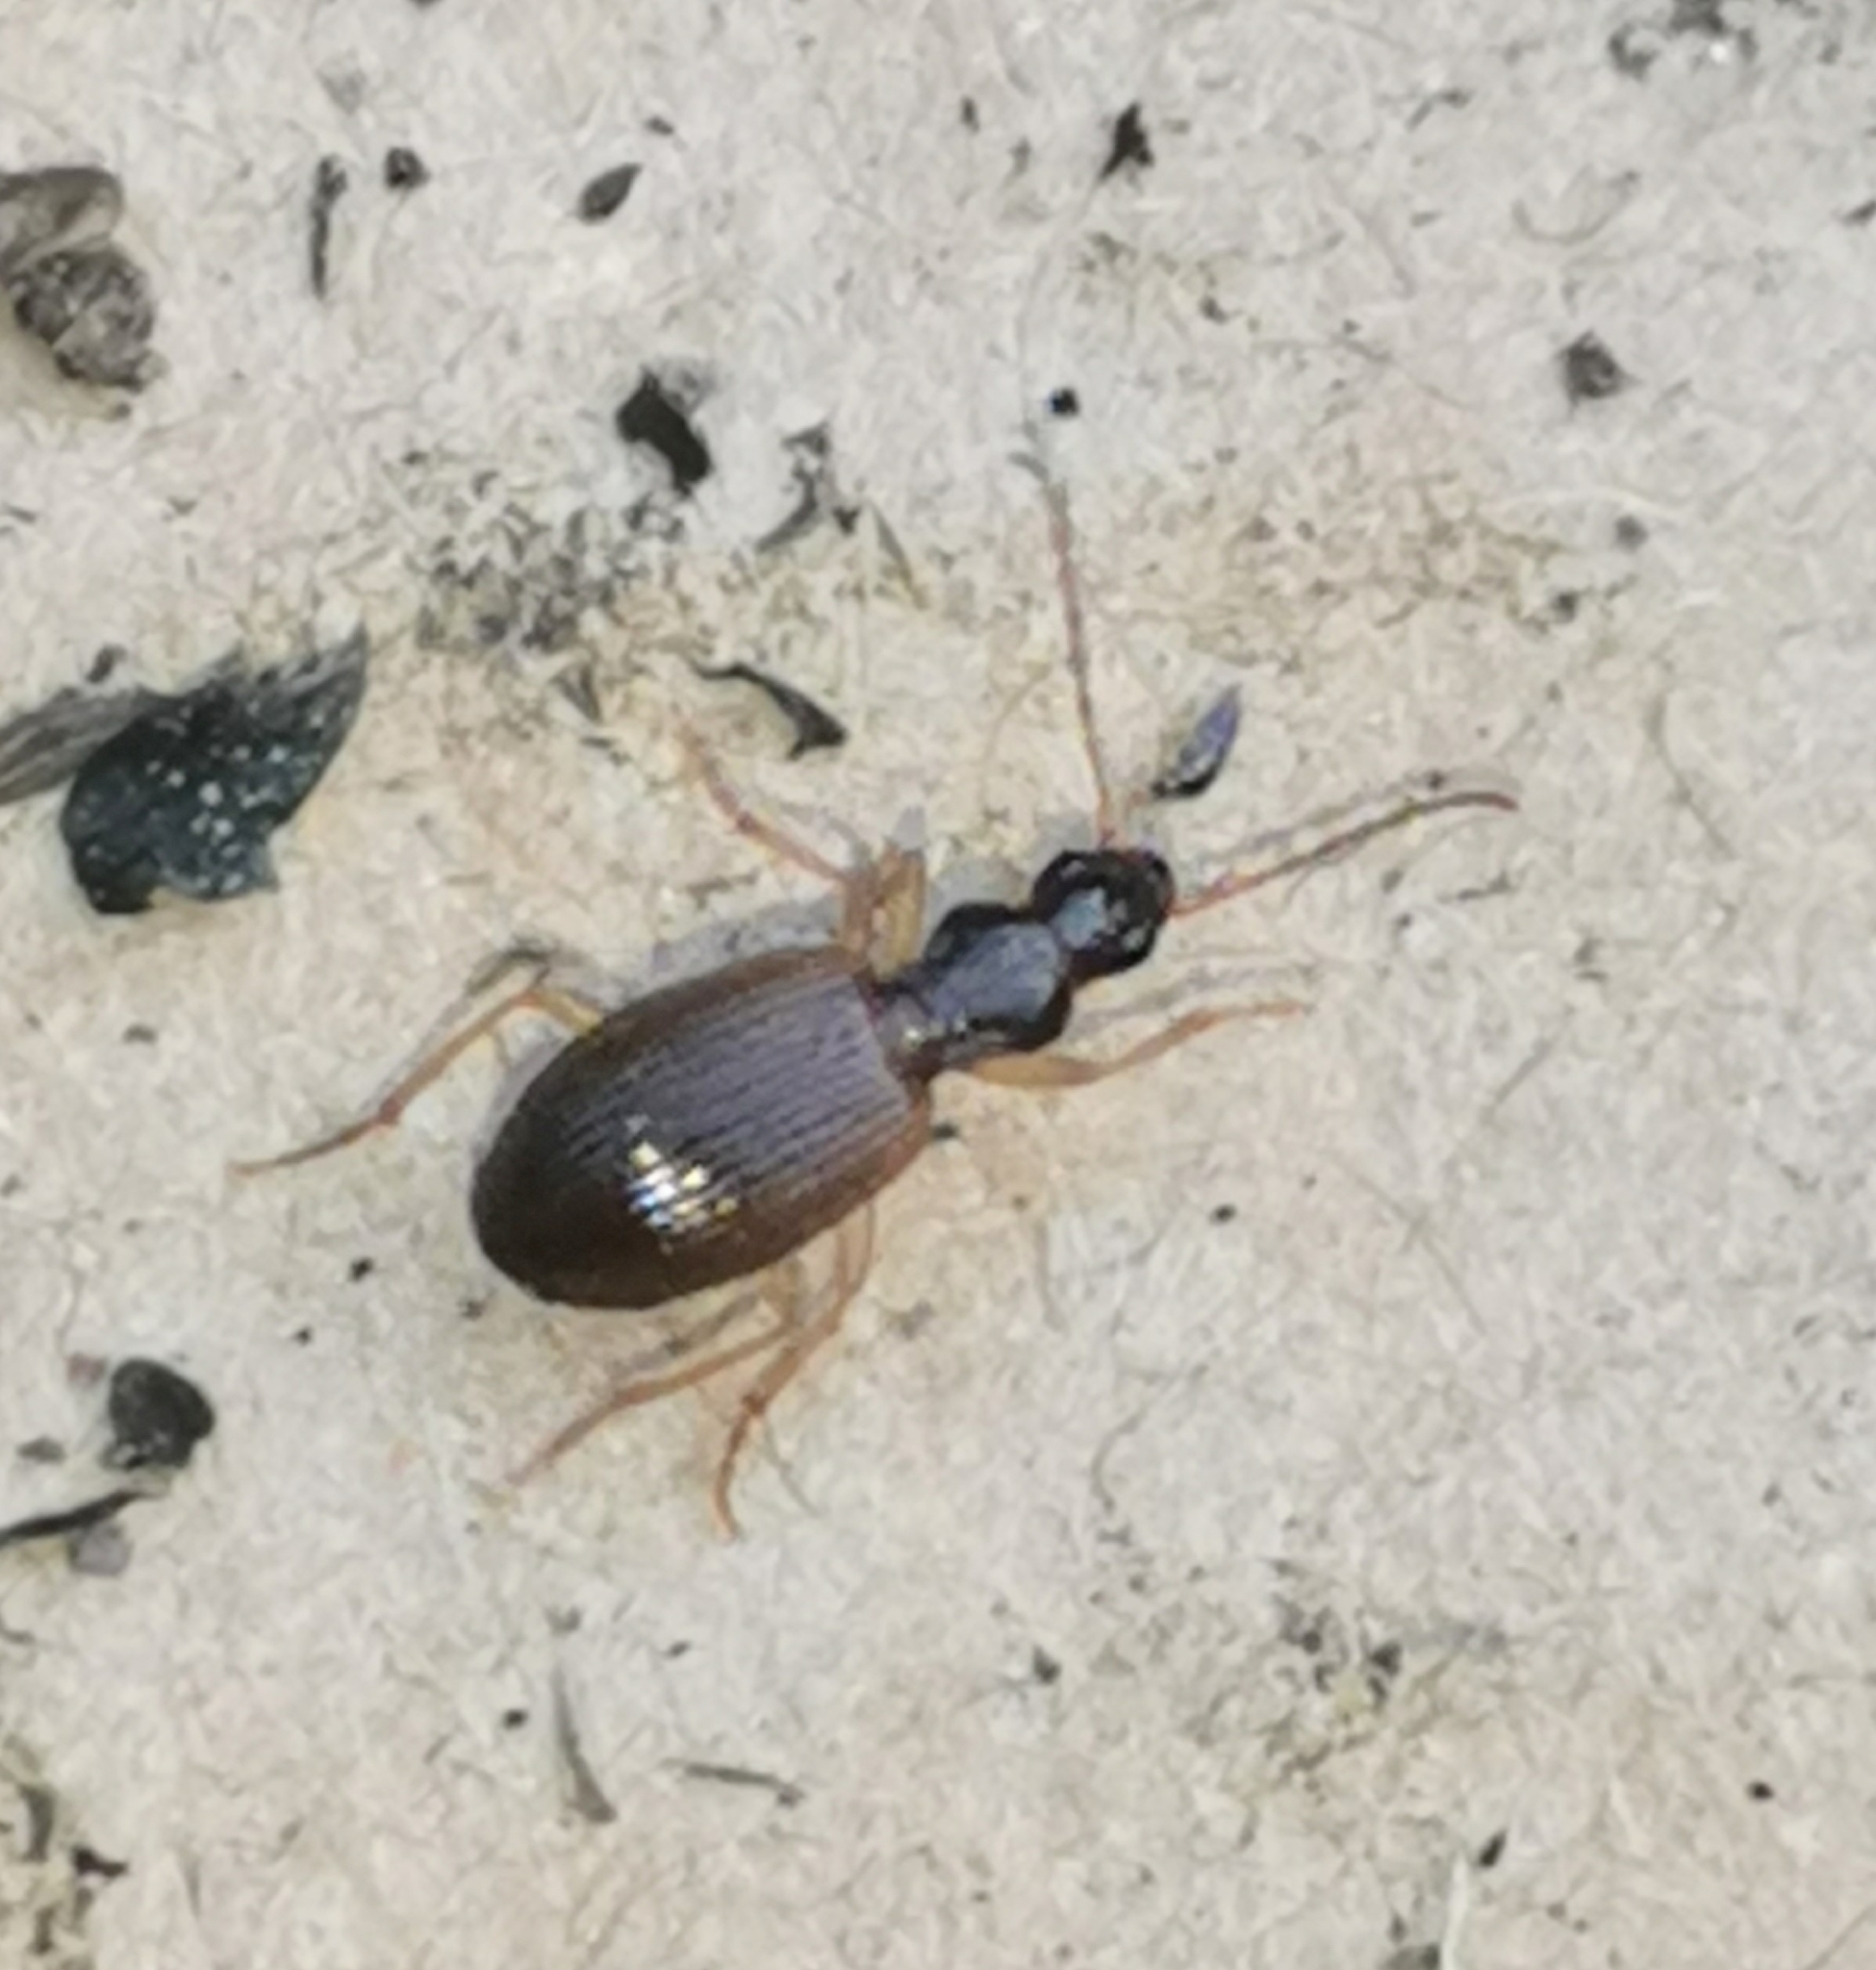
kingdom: Animalia
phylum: Arthropoda
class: Insecta
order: Coleoptera
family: Carabidae
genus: Oxypselaphus
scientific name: Oxypselaphus obscurus
